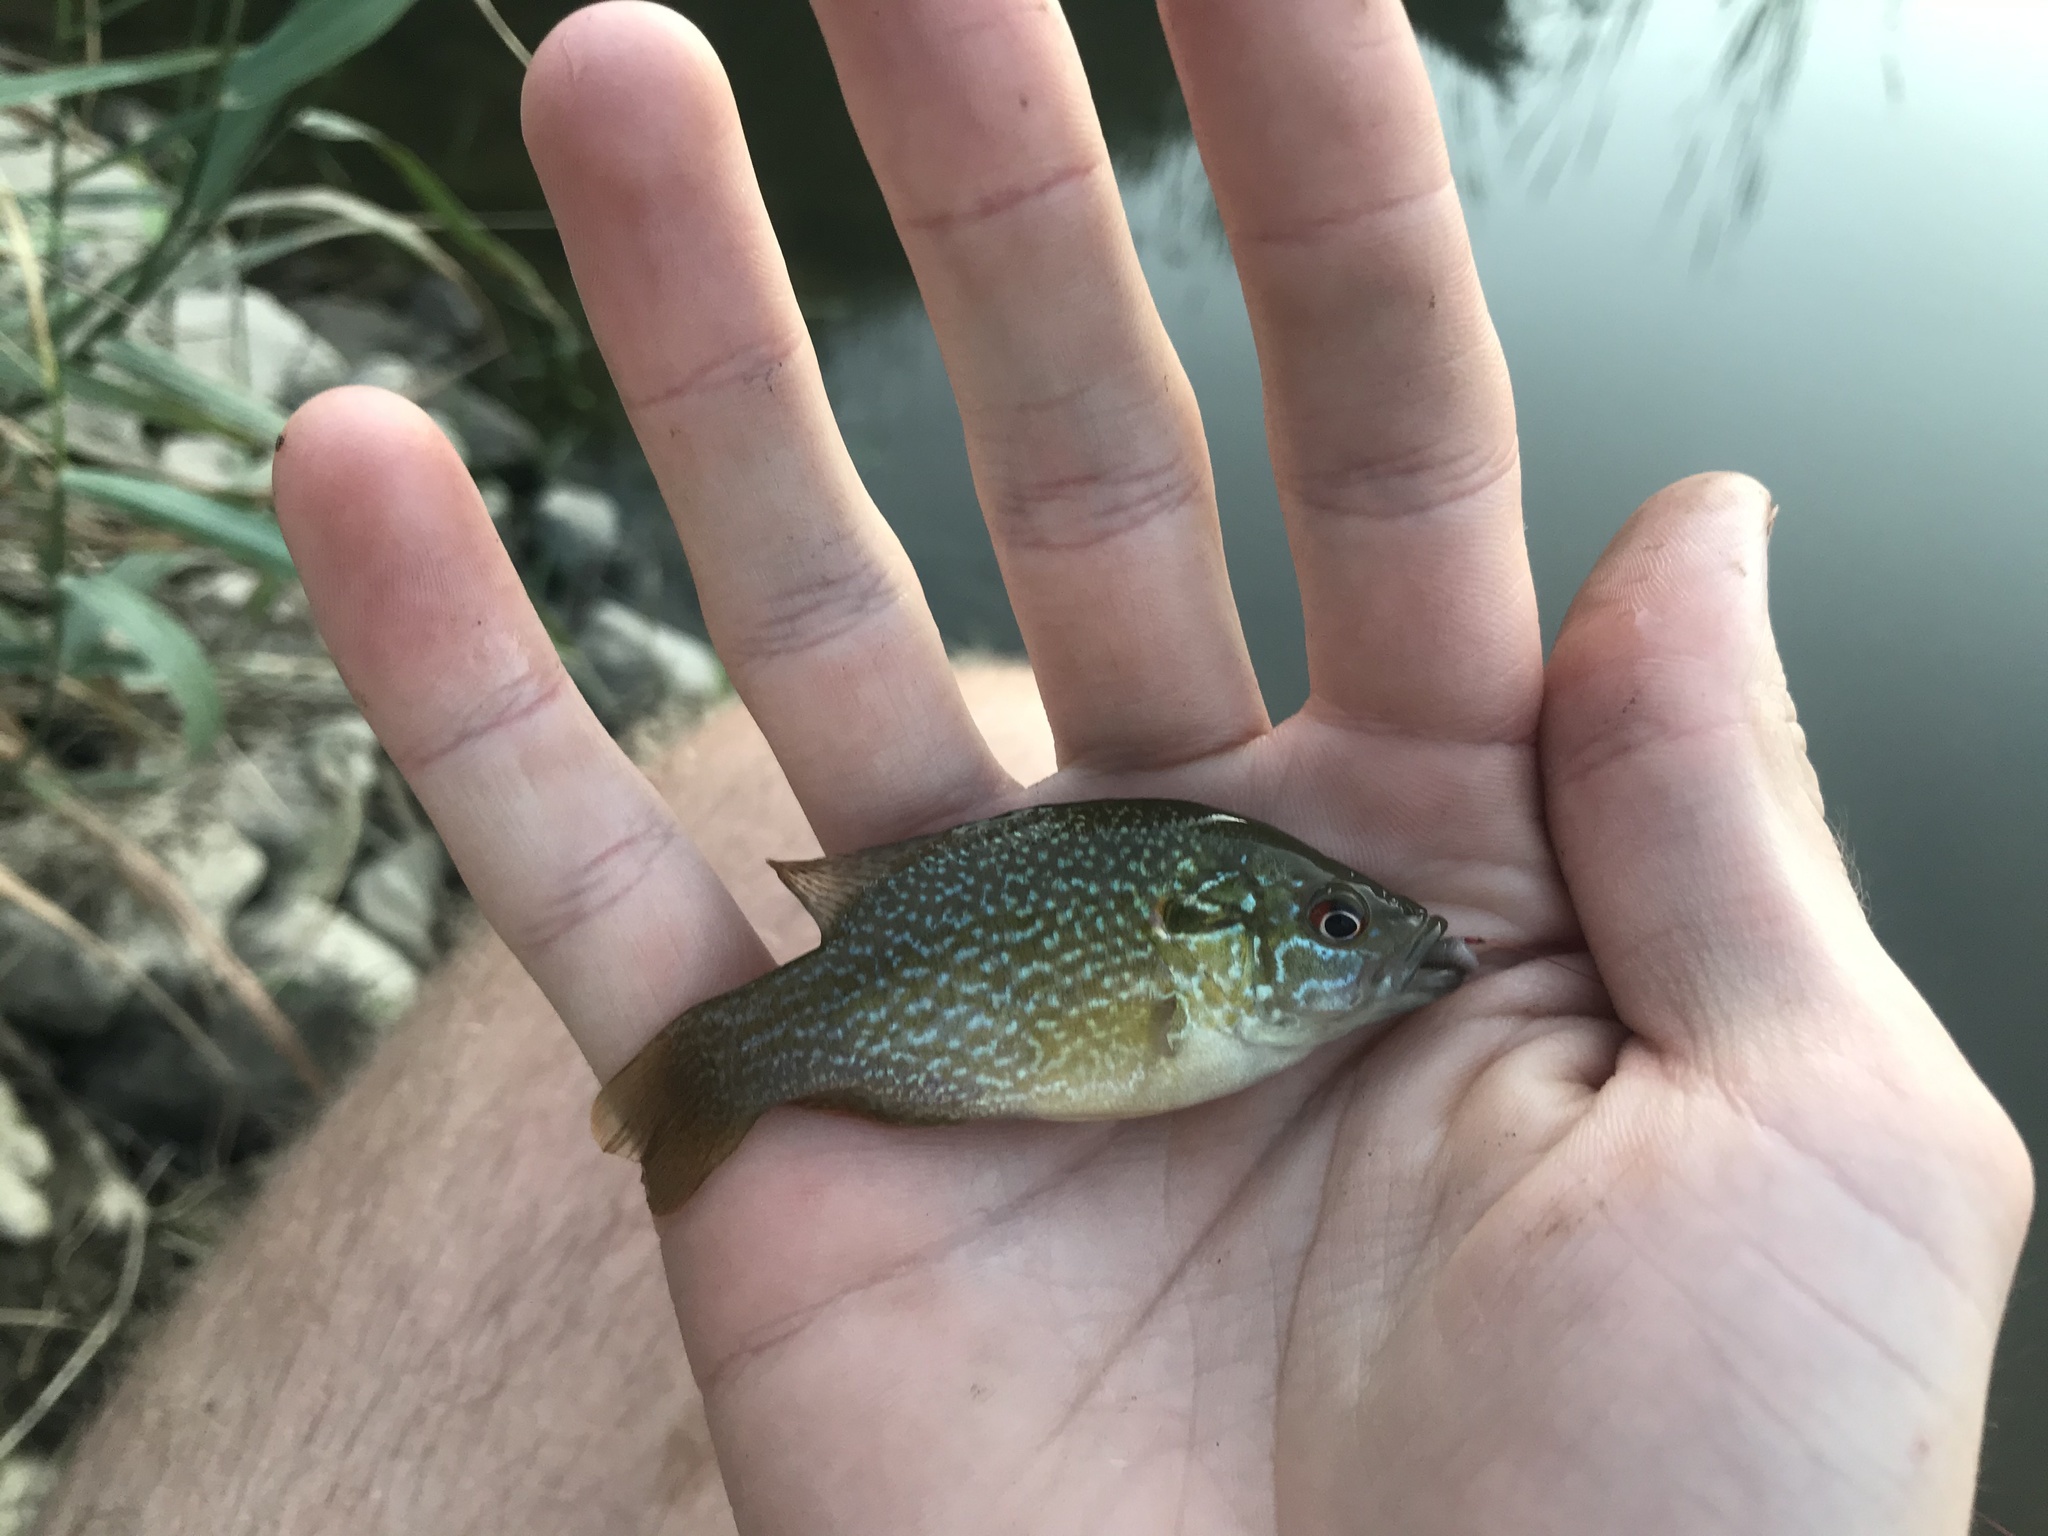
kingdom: Animalia
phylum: Chordata
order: Perciformes
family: Centrarchidae
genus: Lepomis
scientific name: Lepomis cyanellus
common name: Green sunfish
